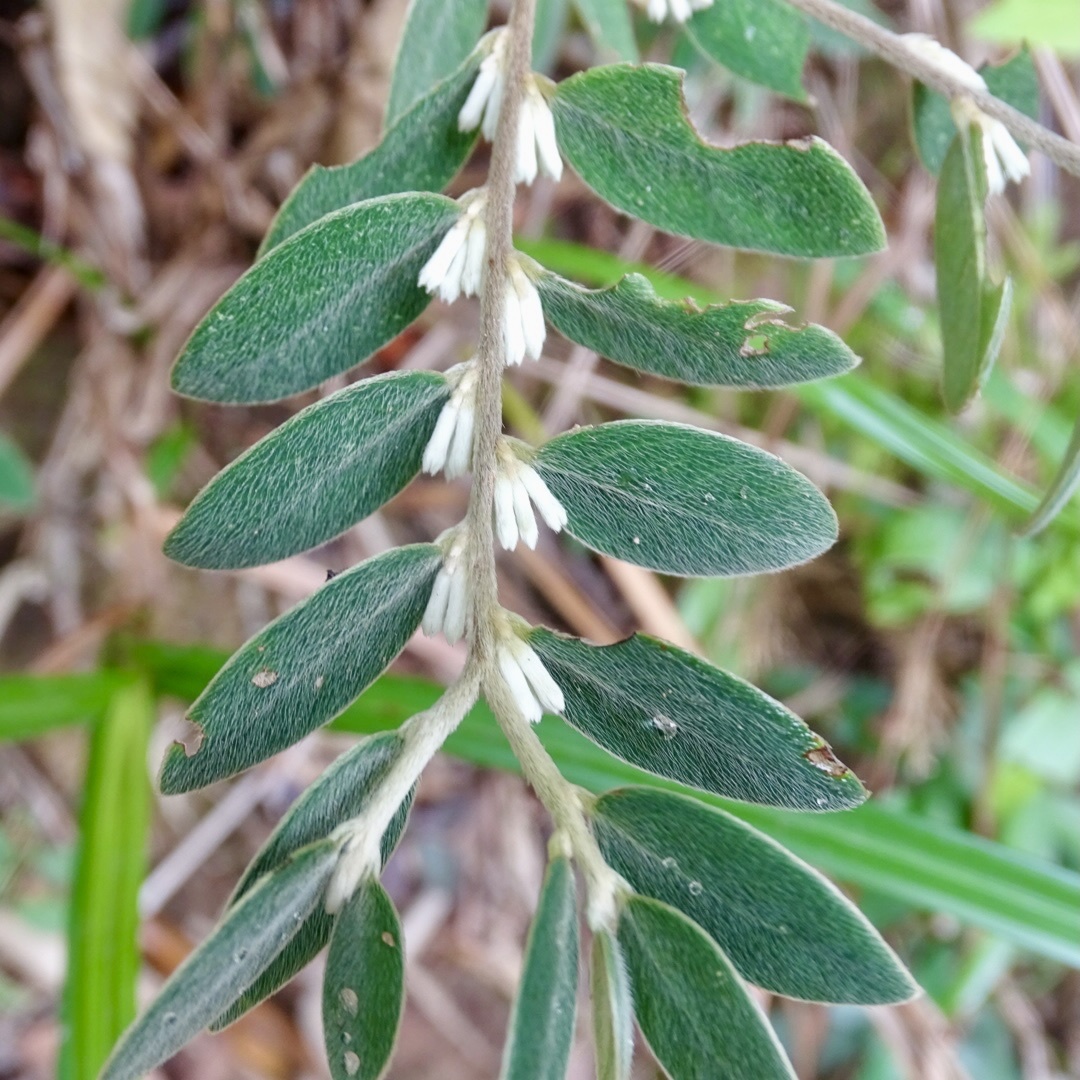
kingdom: Plantae
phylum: Tracheophyta
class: Magnoliopsida
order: Malvales
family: Thymelaeaceae
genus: Daphne
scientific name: Daphne championii
